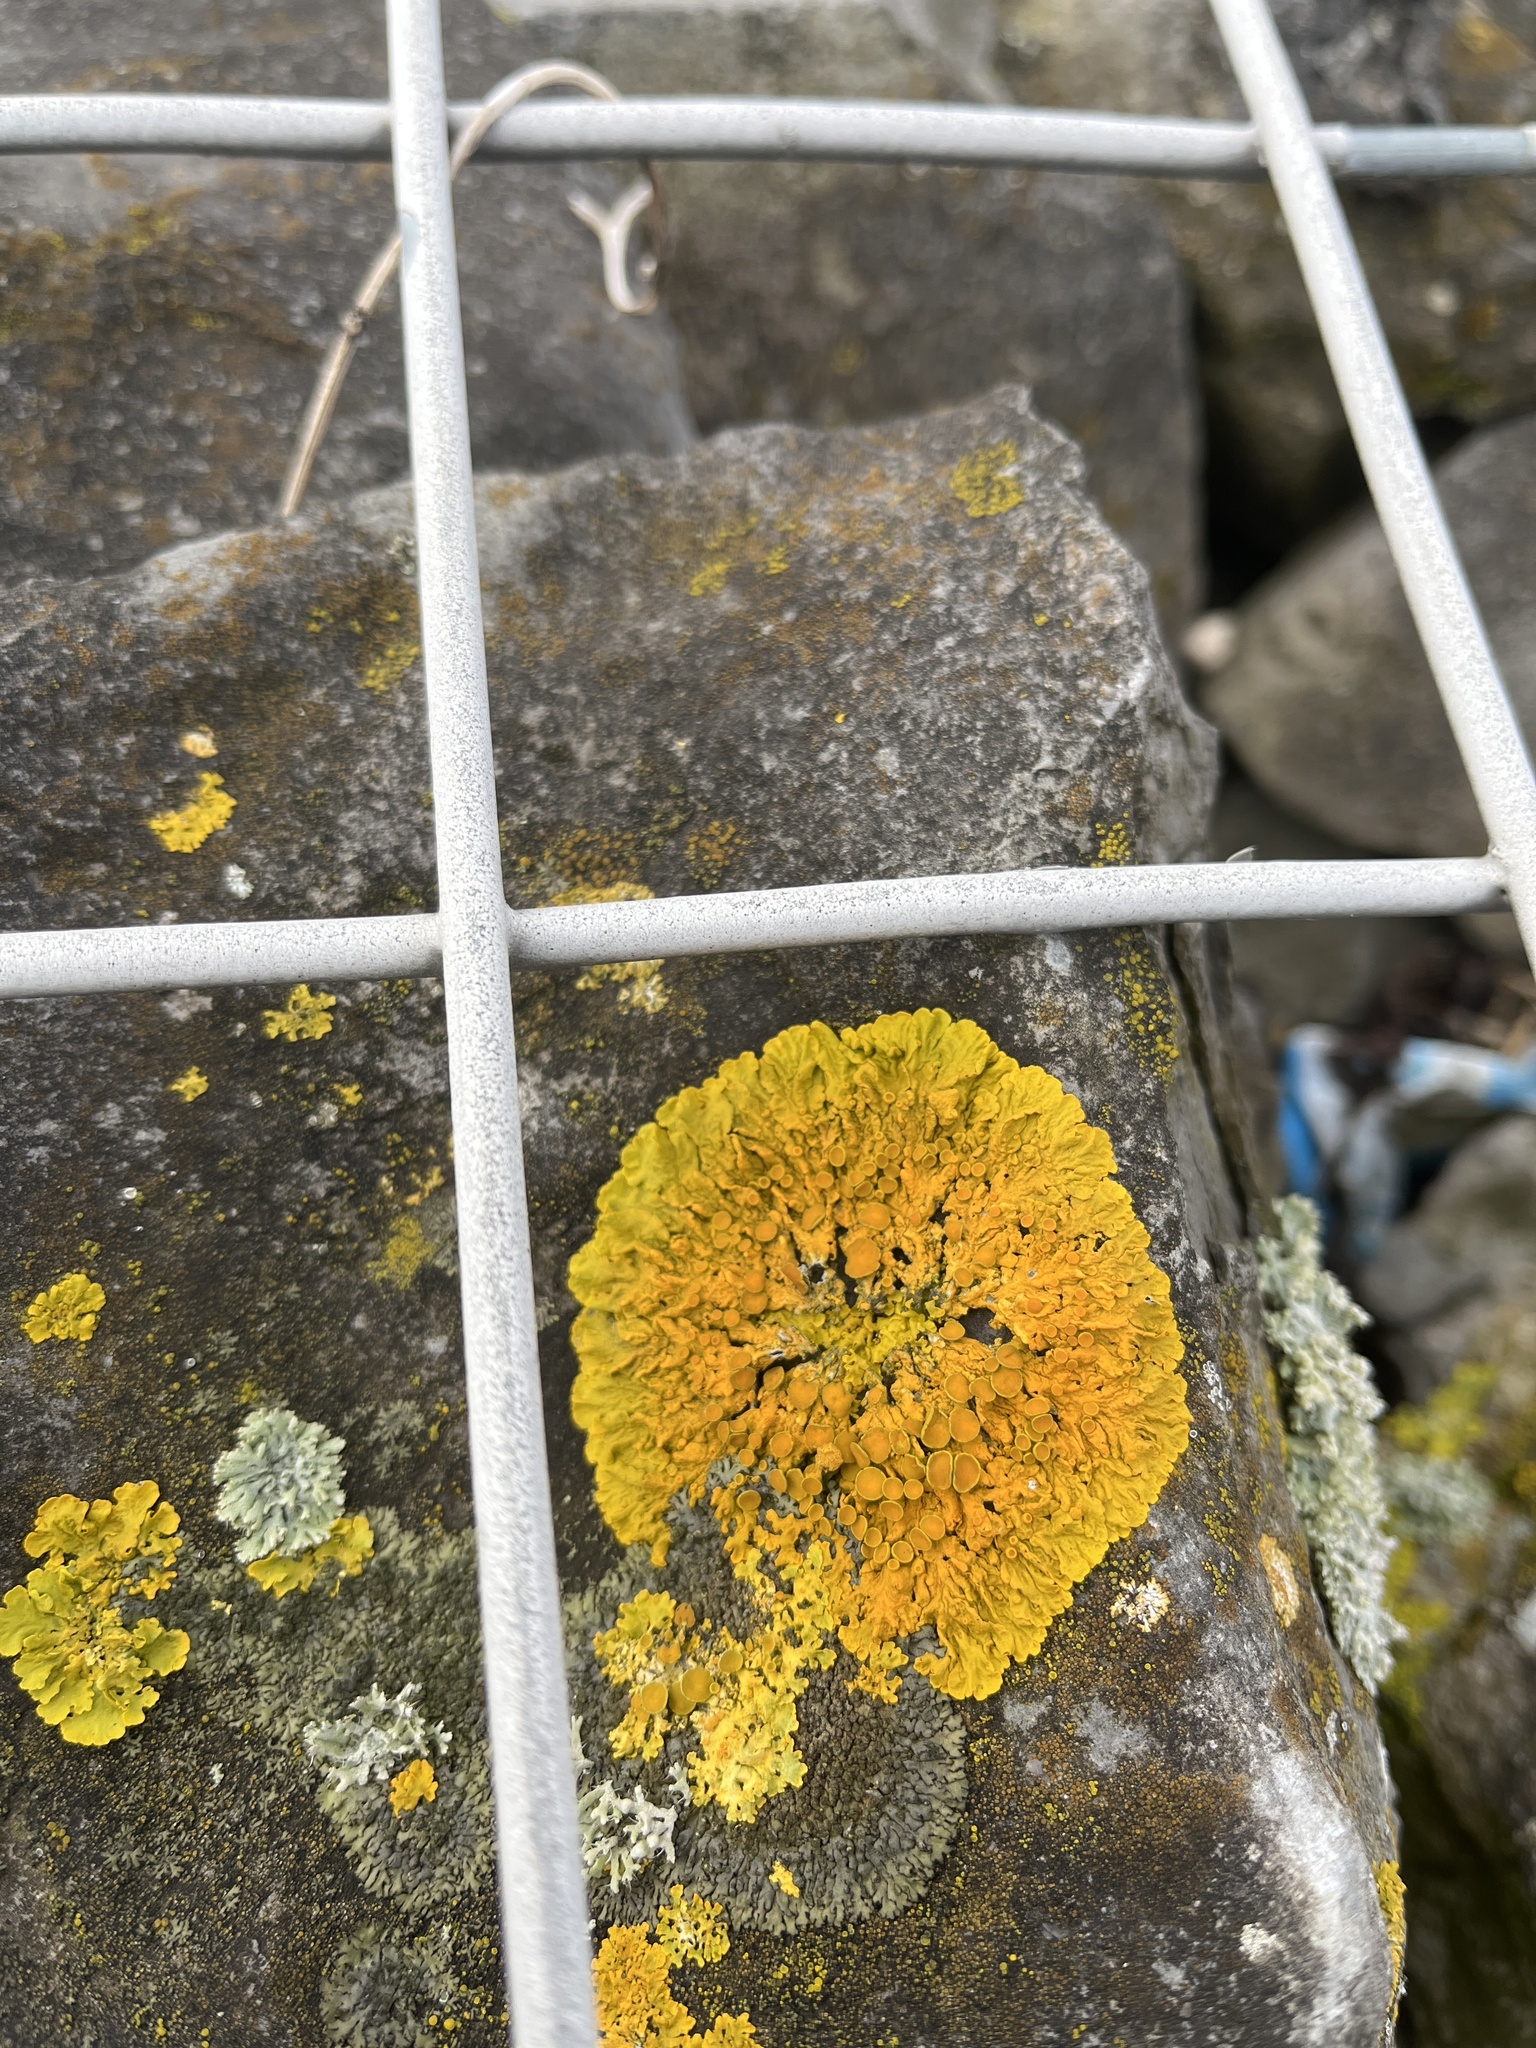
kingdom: Fungi
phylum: Ascomycota
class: Lecanoromycetes
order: Teloschistales
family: Teloschistaceae
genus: Xanthoria
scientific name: Xanthoria parietina
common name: Common orange lichen
